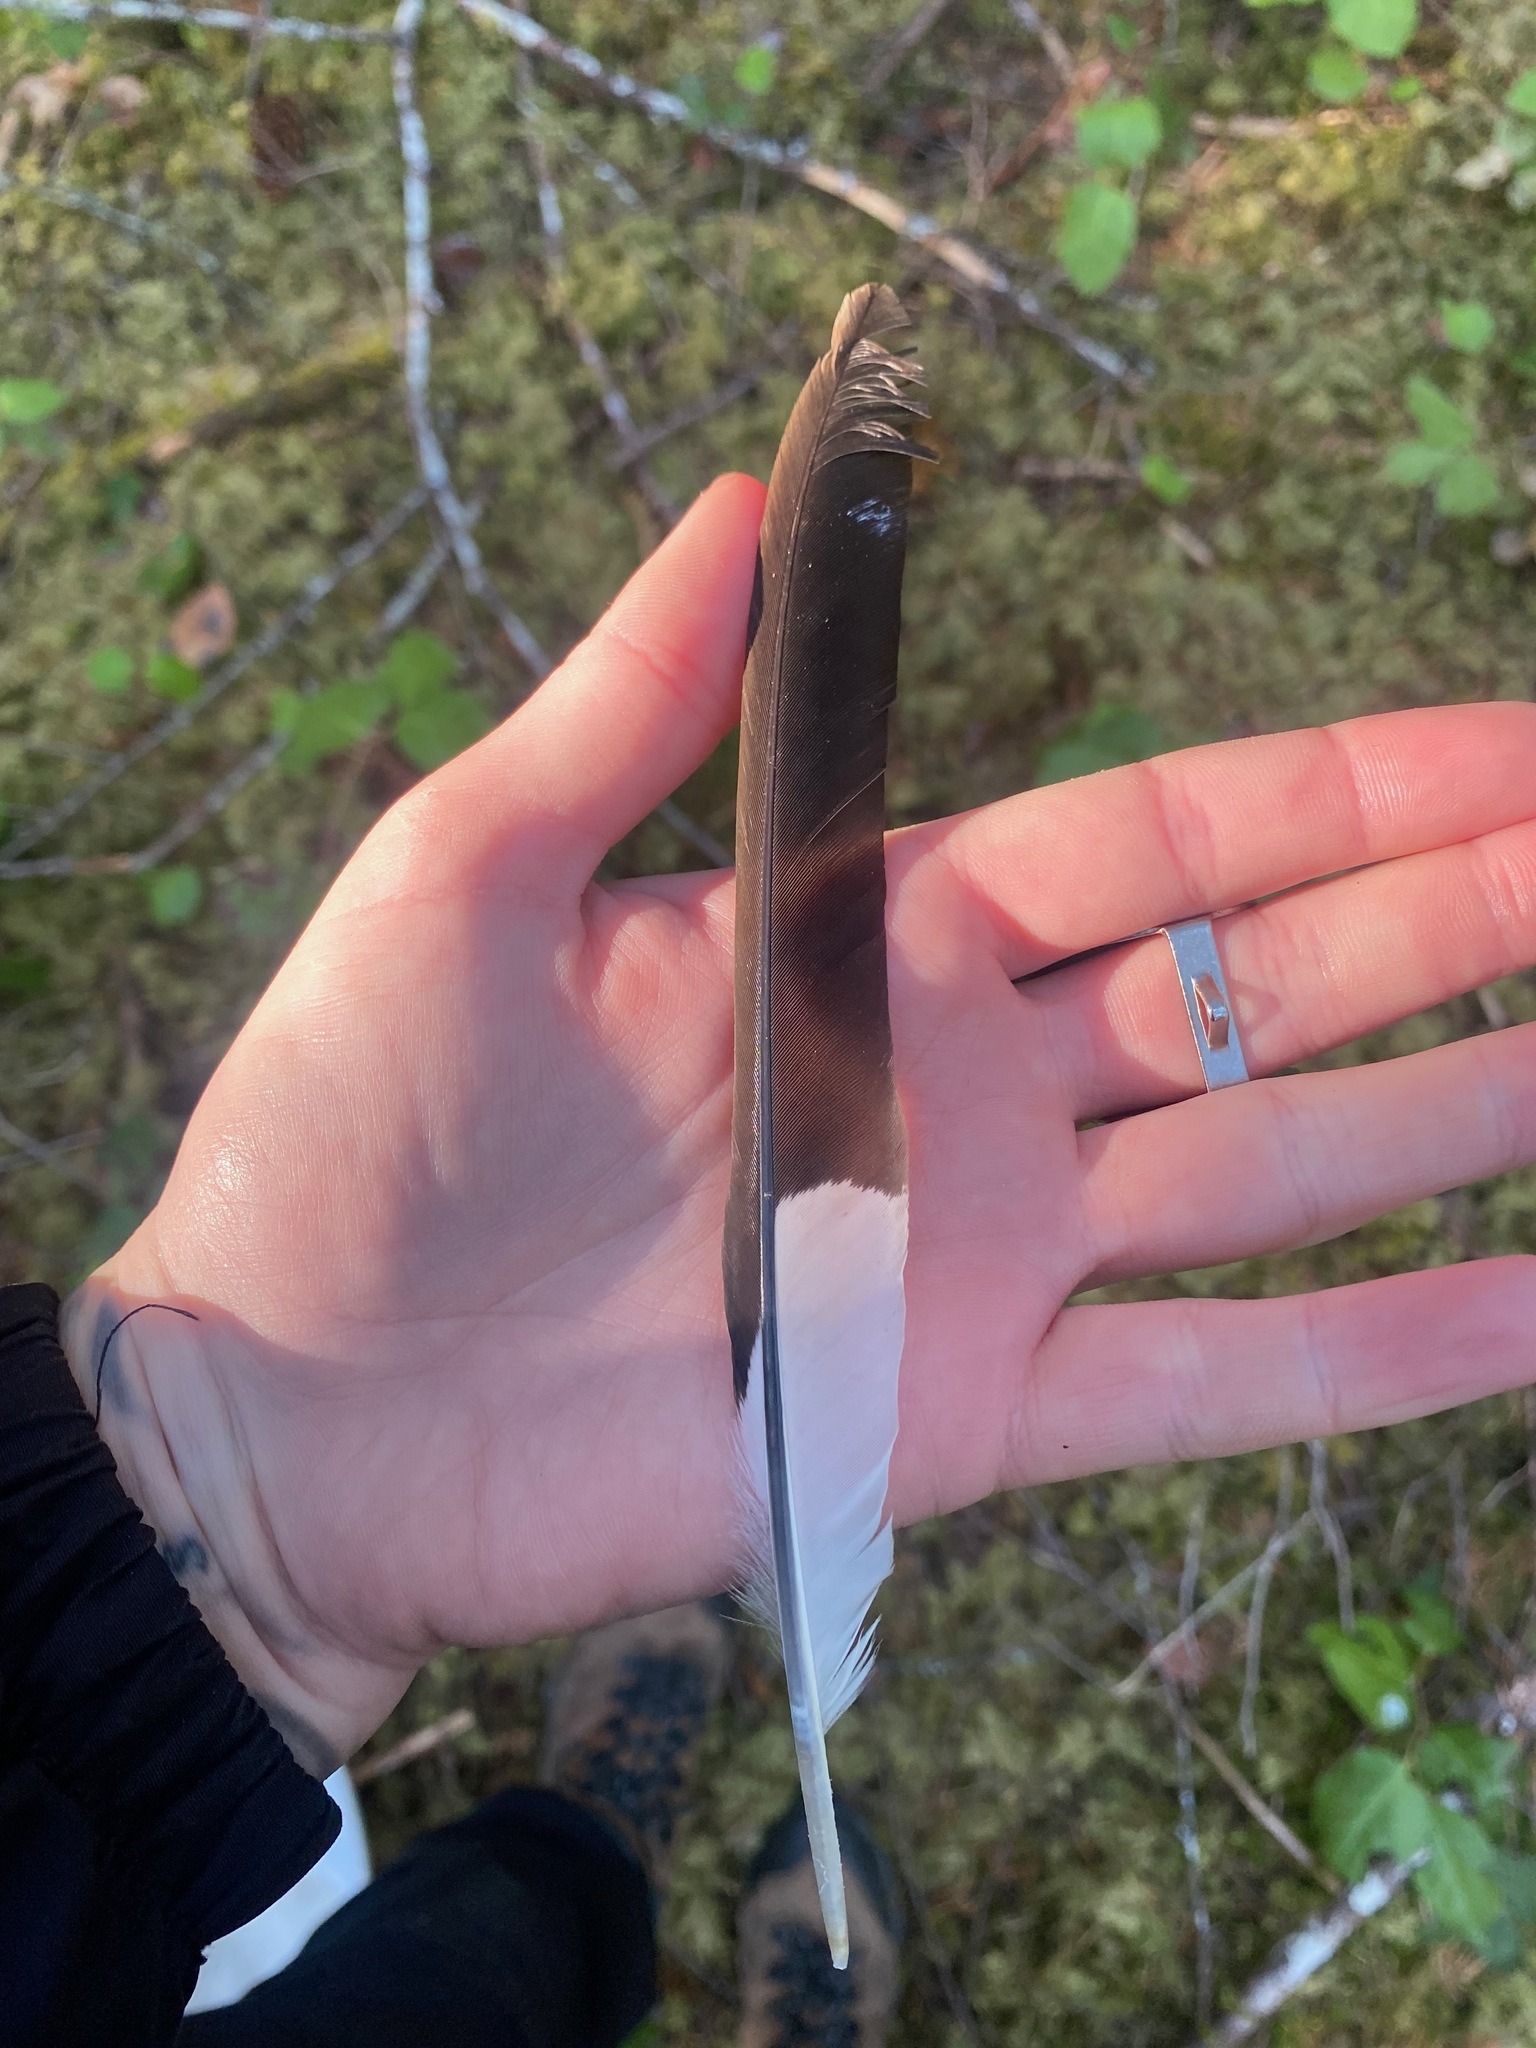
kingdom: Animalia
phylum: Chordata
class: Aves
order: Piciformes
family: Picidae
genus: Dryocopus
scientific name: Dryocopus pileatus
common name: Pileated woodpecker
